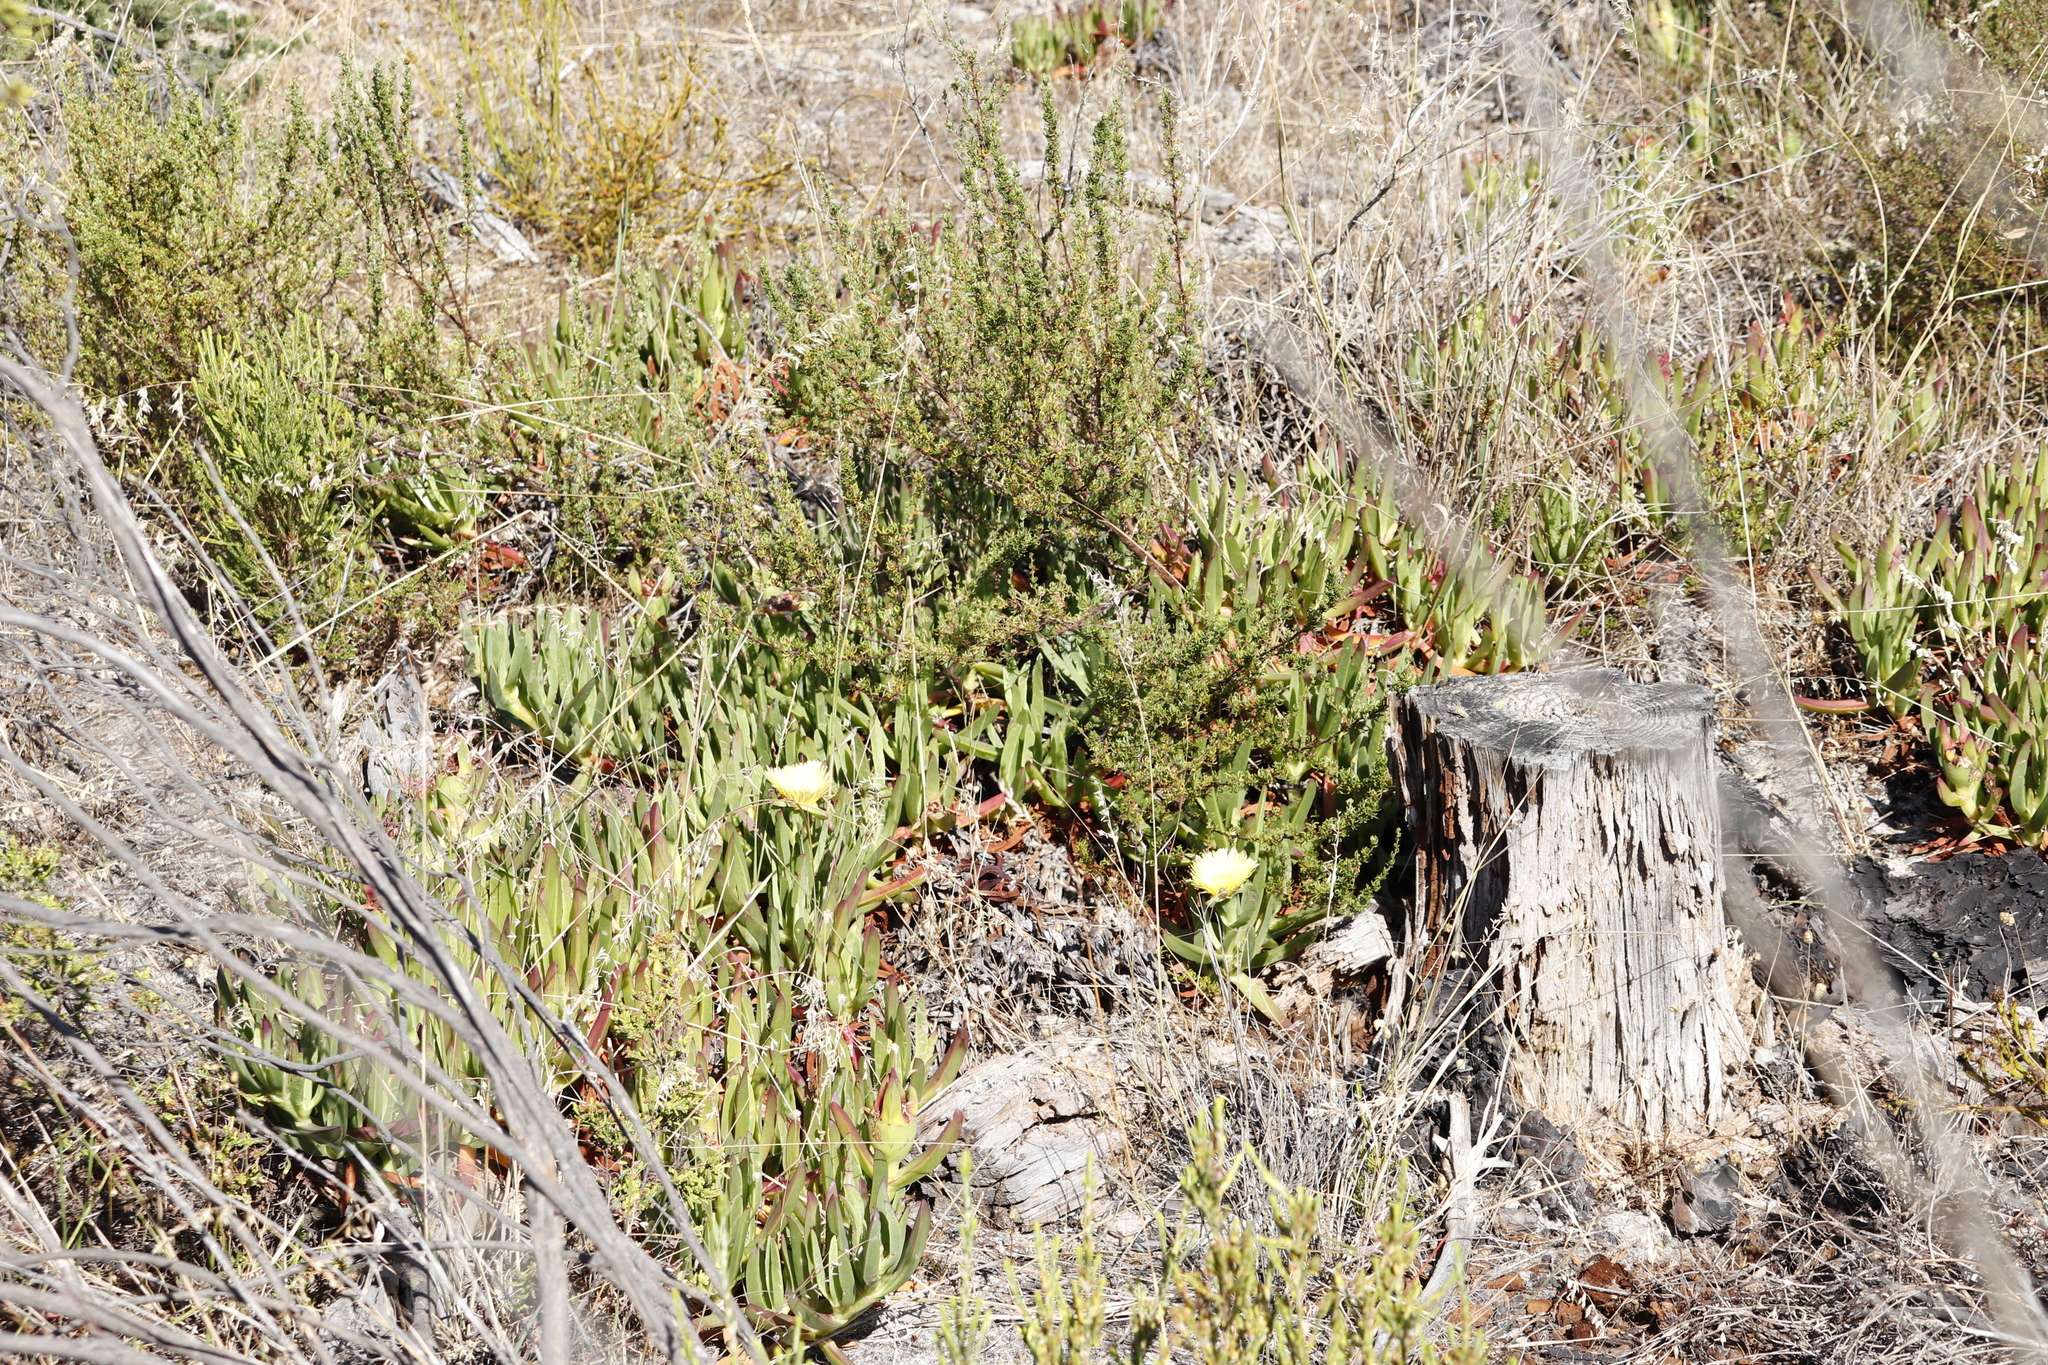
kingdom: Plantae
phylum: Tracheophyta
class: Magnoliopsida
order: Caryophyllales
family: Aizoaceae
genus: Carpobrotus
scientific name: Carpobrotus edulis
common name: Hottentot-fig
